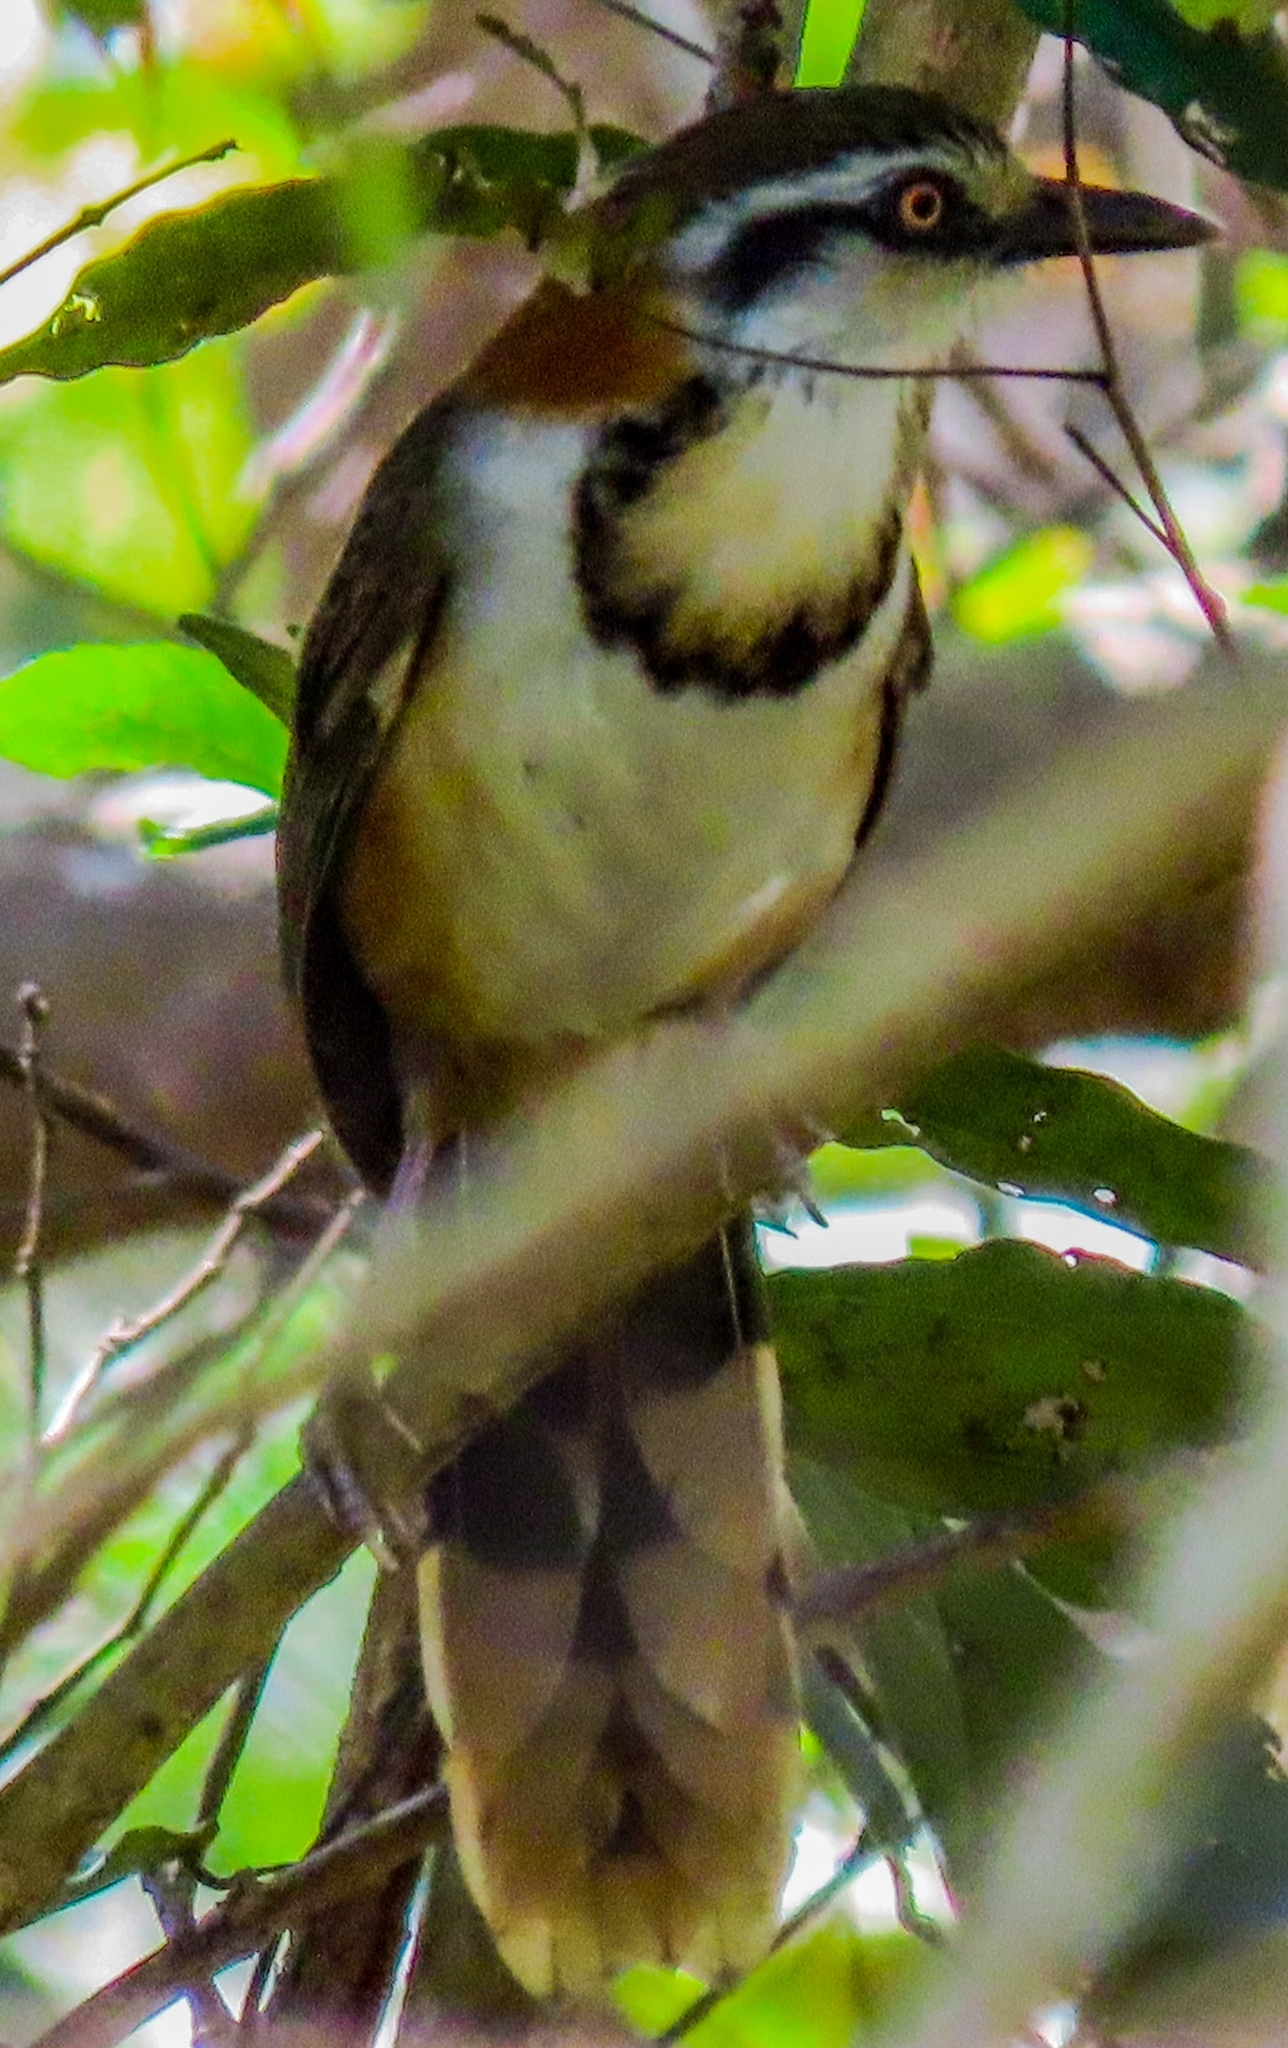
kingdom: Animalia
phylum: Chordata
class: Aves
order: Passeriformes
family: Leiothrichidae
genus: Garrulax
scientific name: Garrulax monileger
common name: Lesser necklaced laughingthrush
